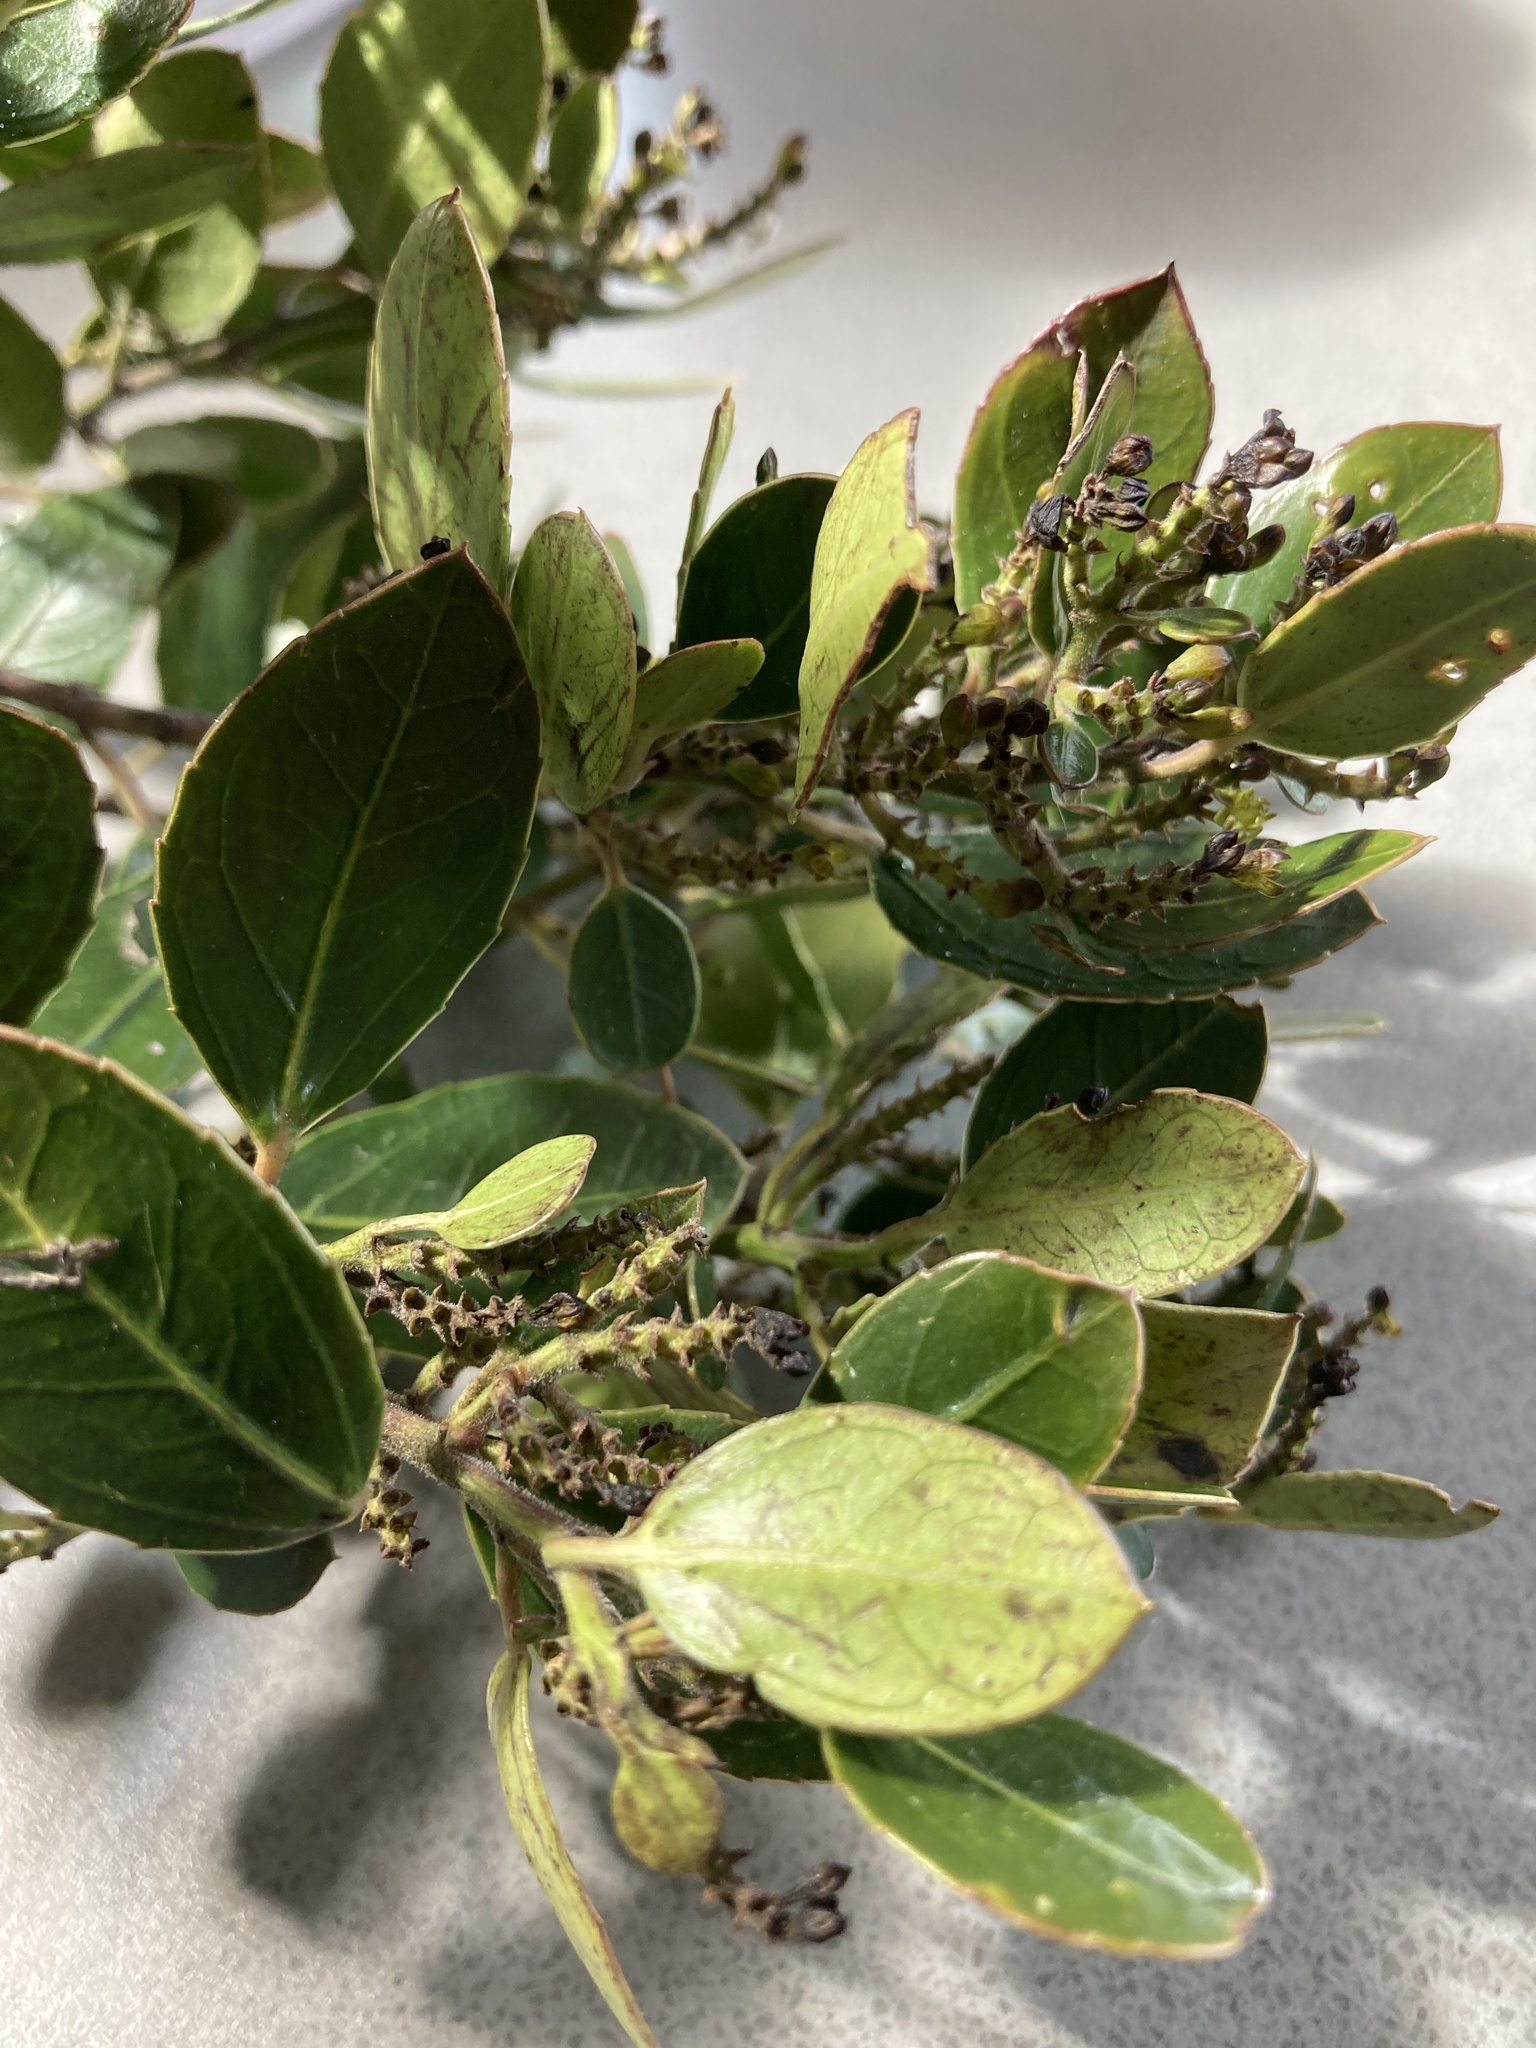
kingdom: Plantae
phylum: Tracheophyta
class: Magnoliopsida
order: Rosales
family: Rhamnaceae
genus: Rhamnus
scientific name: Rhamnus alaternus
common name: Mediterranean buckthorn
